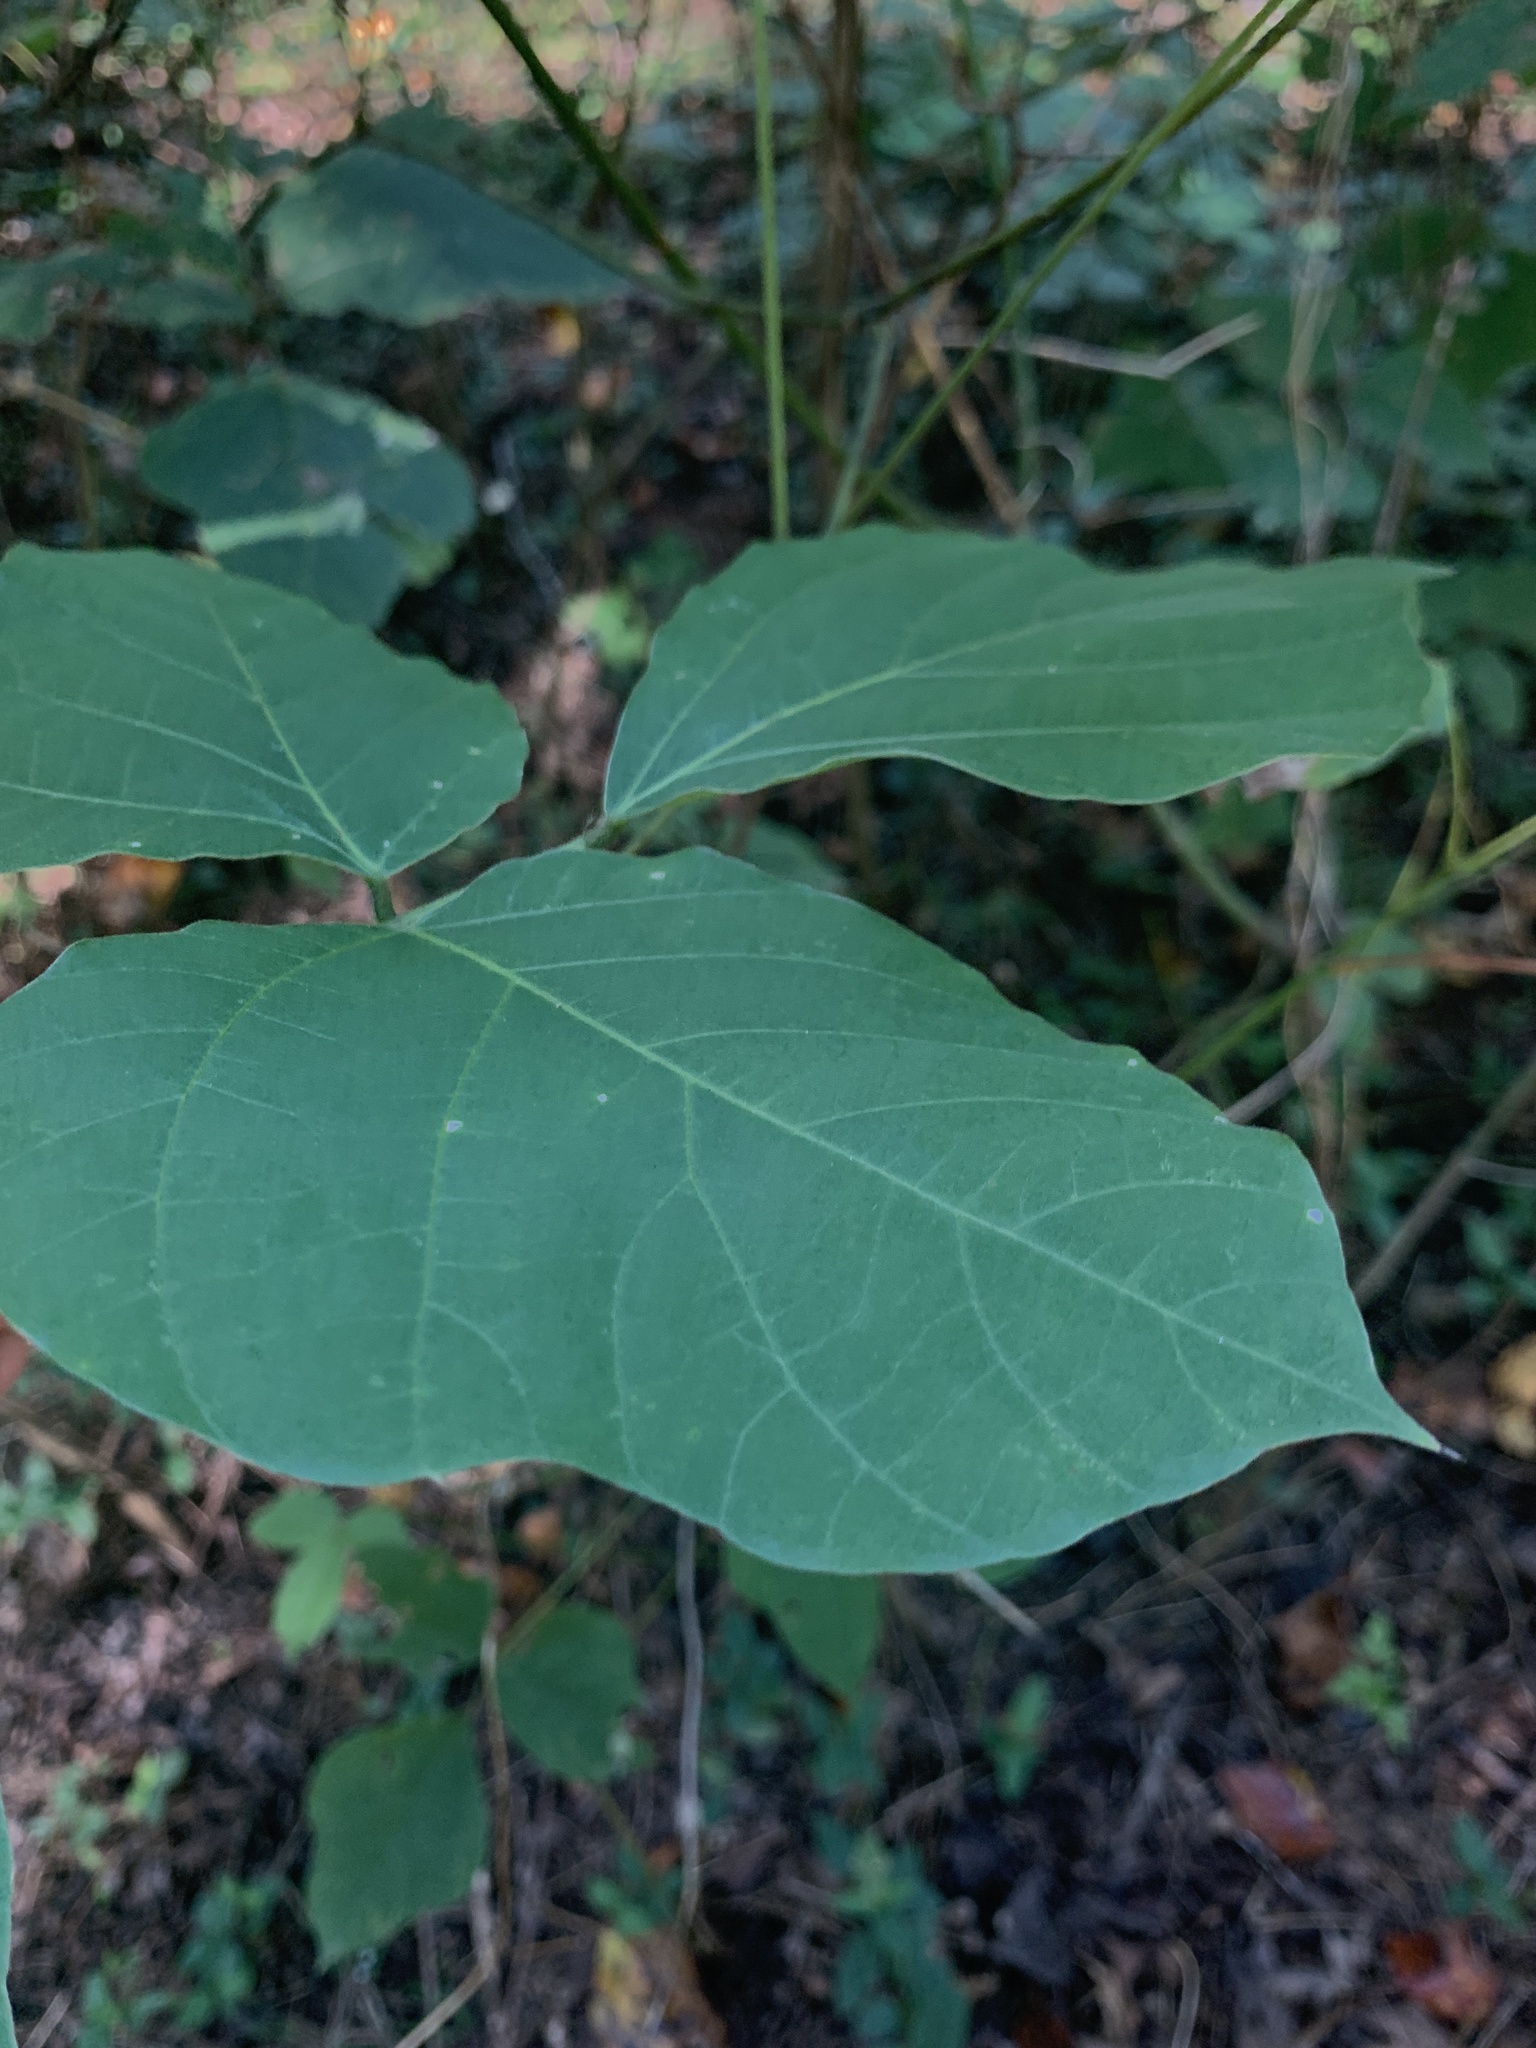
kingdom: Plantae
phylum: Tracheophyta
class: Magnoliopsida
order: Fabales
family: Fabaceae
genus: Pueraria
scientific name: Pueraria montana
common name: Kudzu
